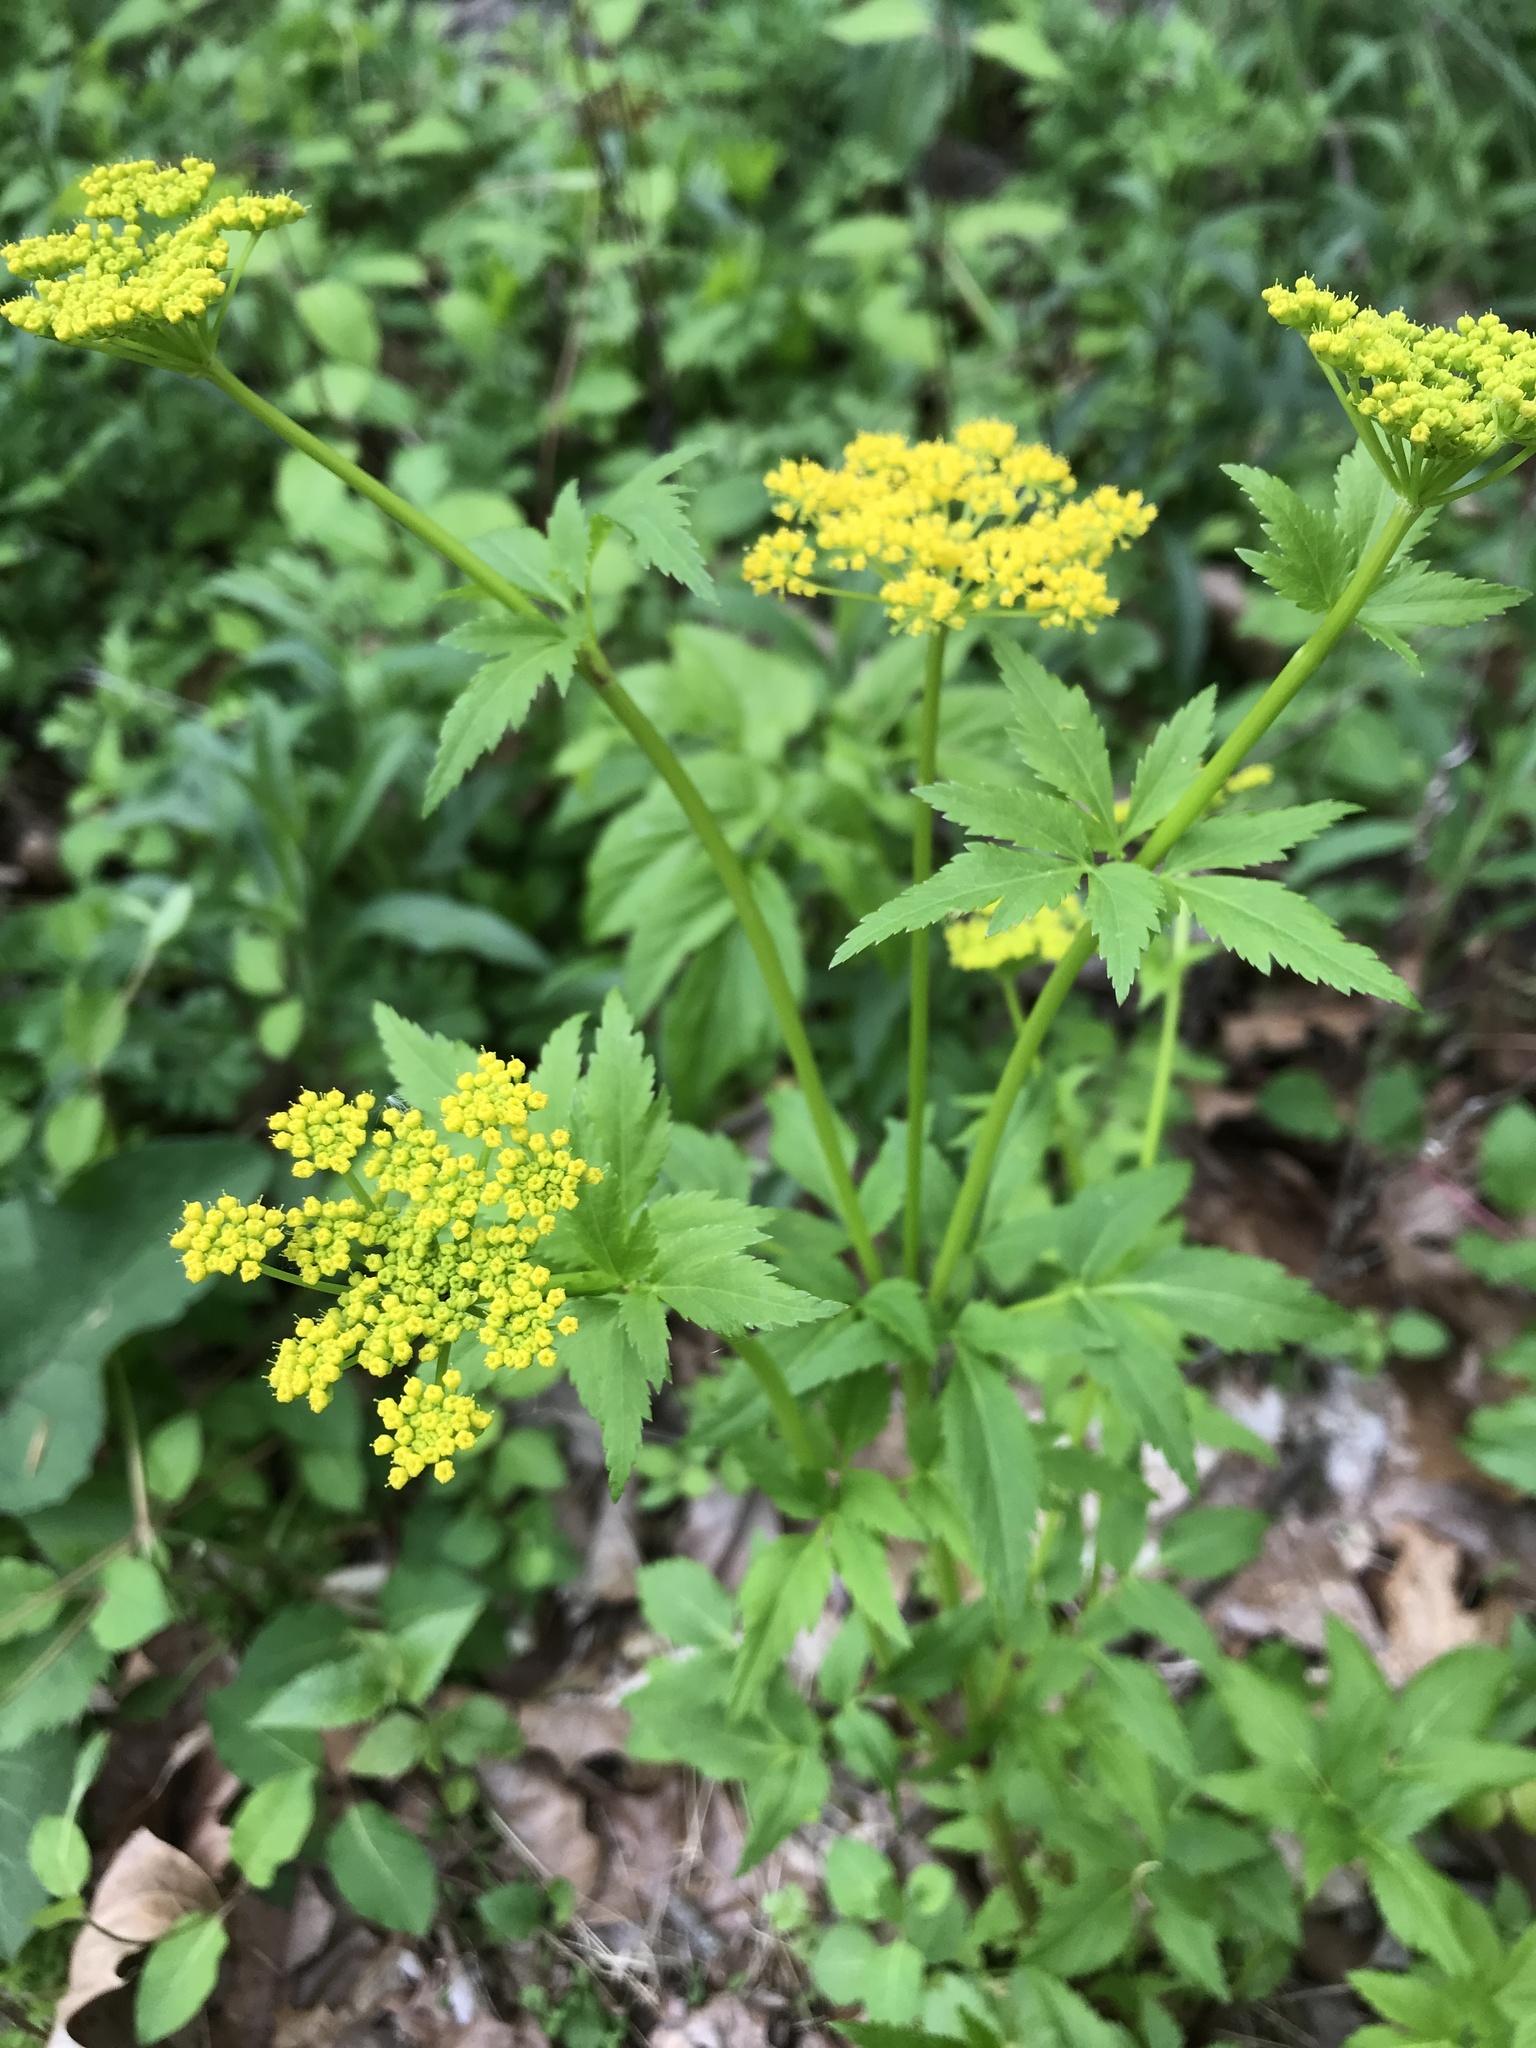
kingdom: Plantae
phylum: Tracheophyta
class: Magnoliopsida
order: Apiales
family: Apiaceae
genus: Zizia
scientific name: Zizia aurea
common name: Golden alexanders
